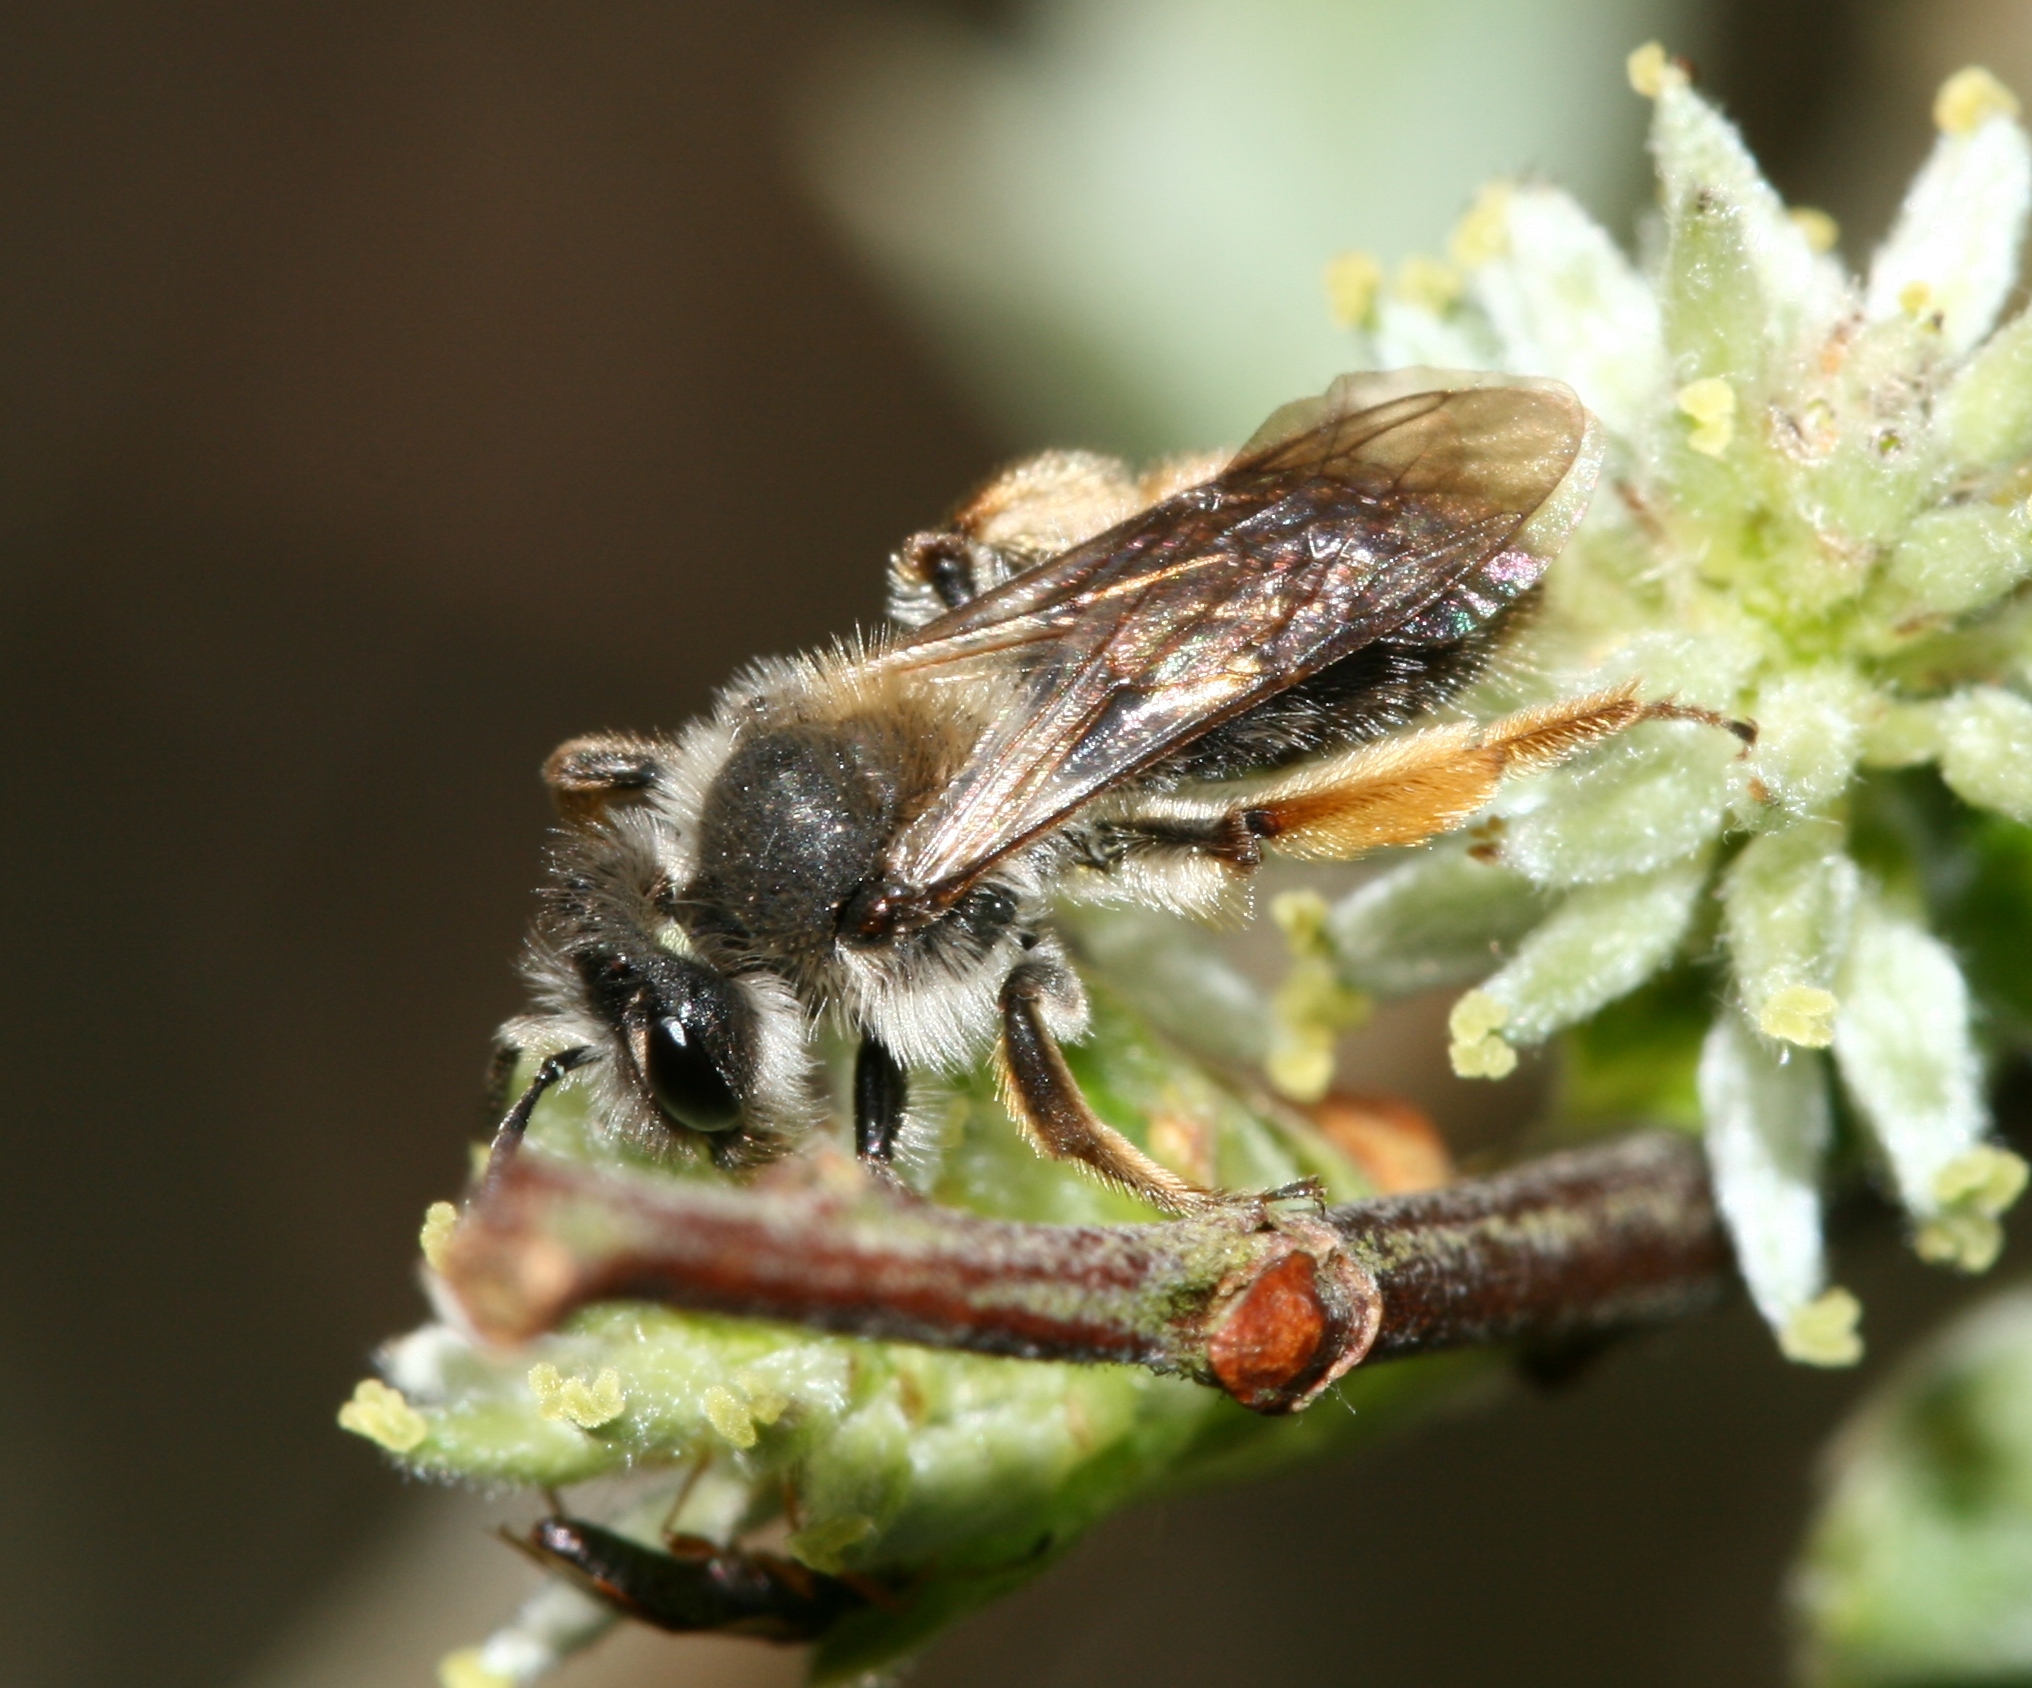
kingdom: Animalia
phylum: Arthropoda
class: Insecta
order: Hymenoptera
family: Andrenidae
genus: Andrena
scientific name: Andrena ruficrus
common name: Northern mining bee
